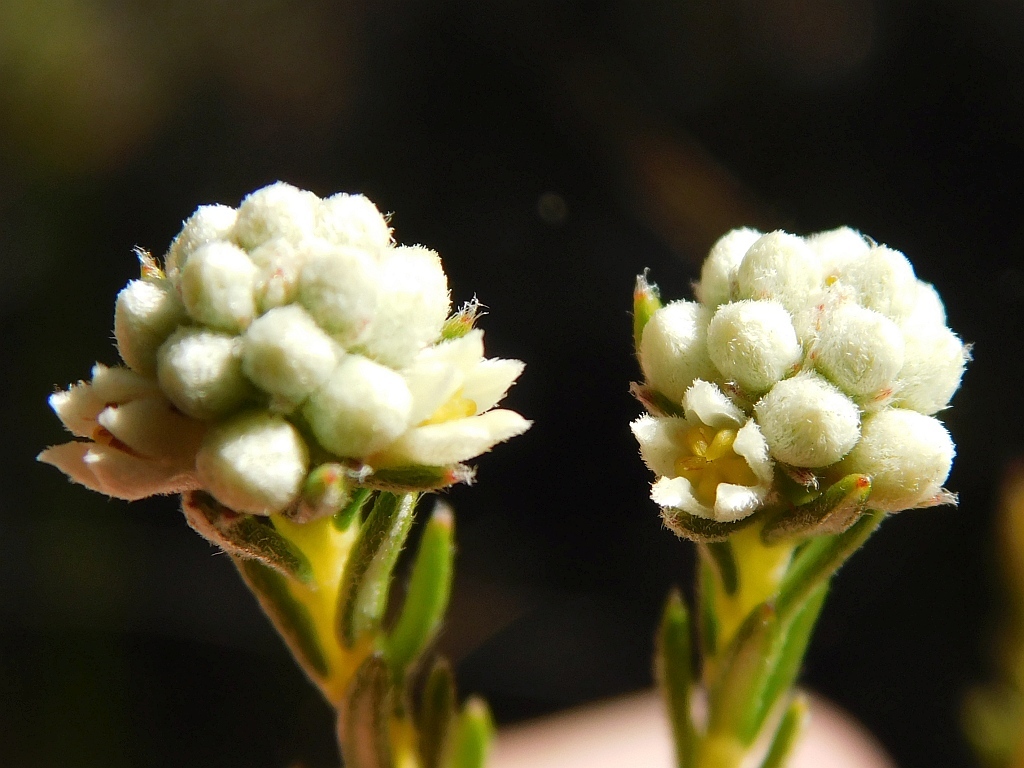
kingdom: Plantae
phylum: Tracheophyta
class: Magnoliopsida
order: Rosales
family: Rhamnaceae
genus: Phylica
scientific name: Phylica imberbis
